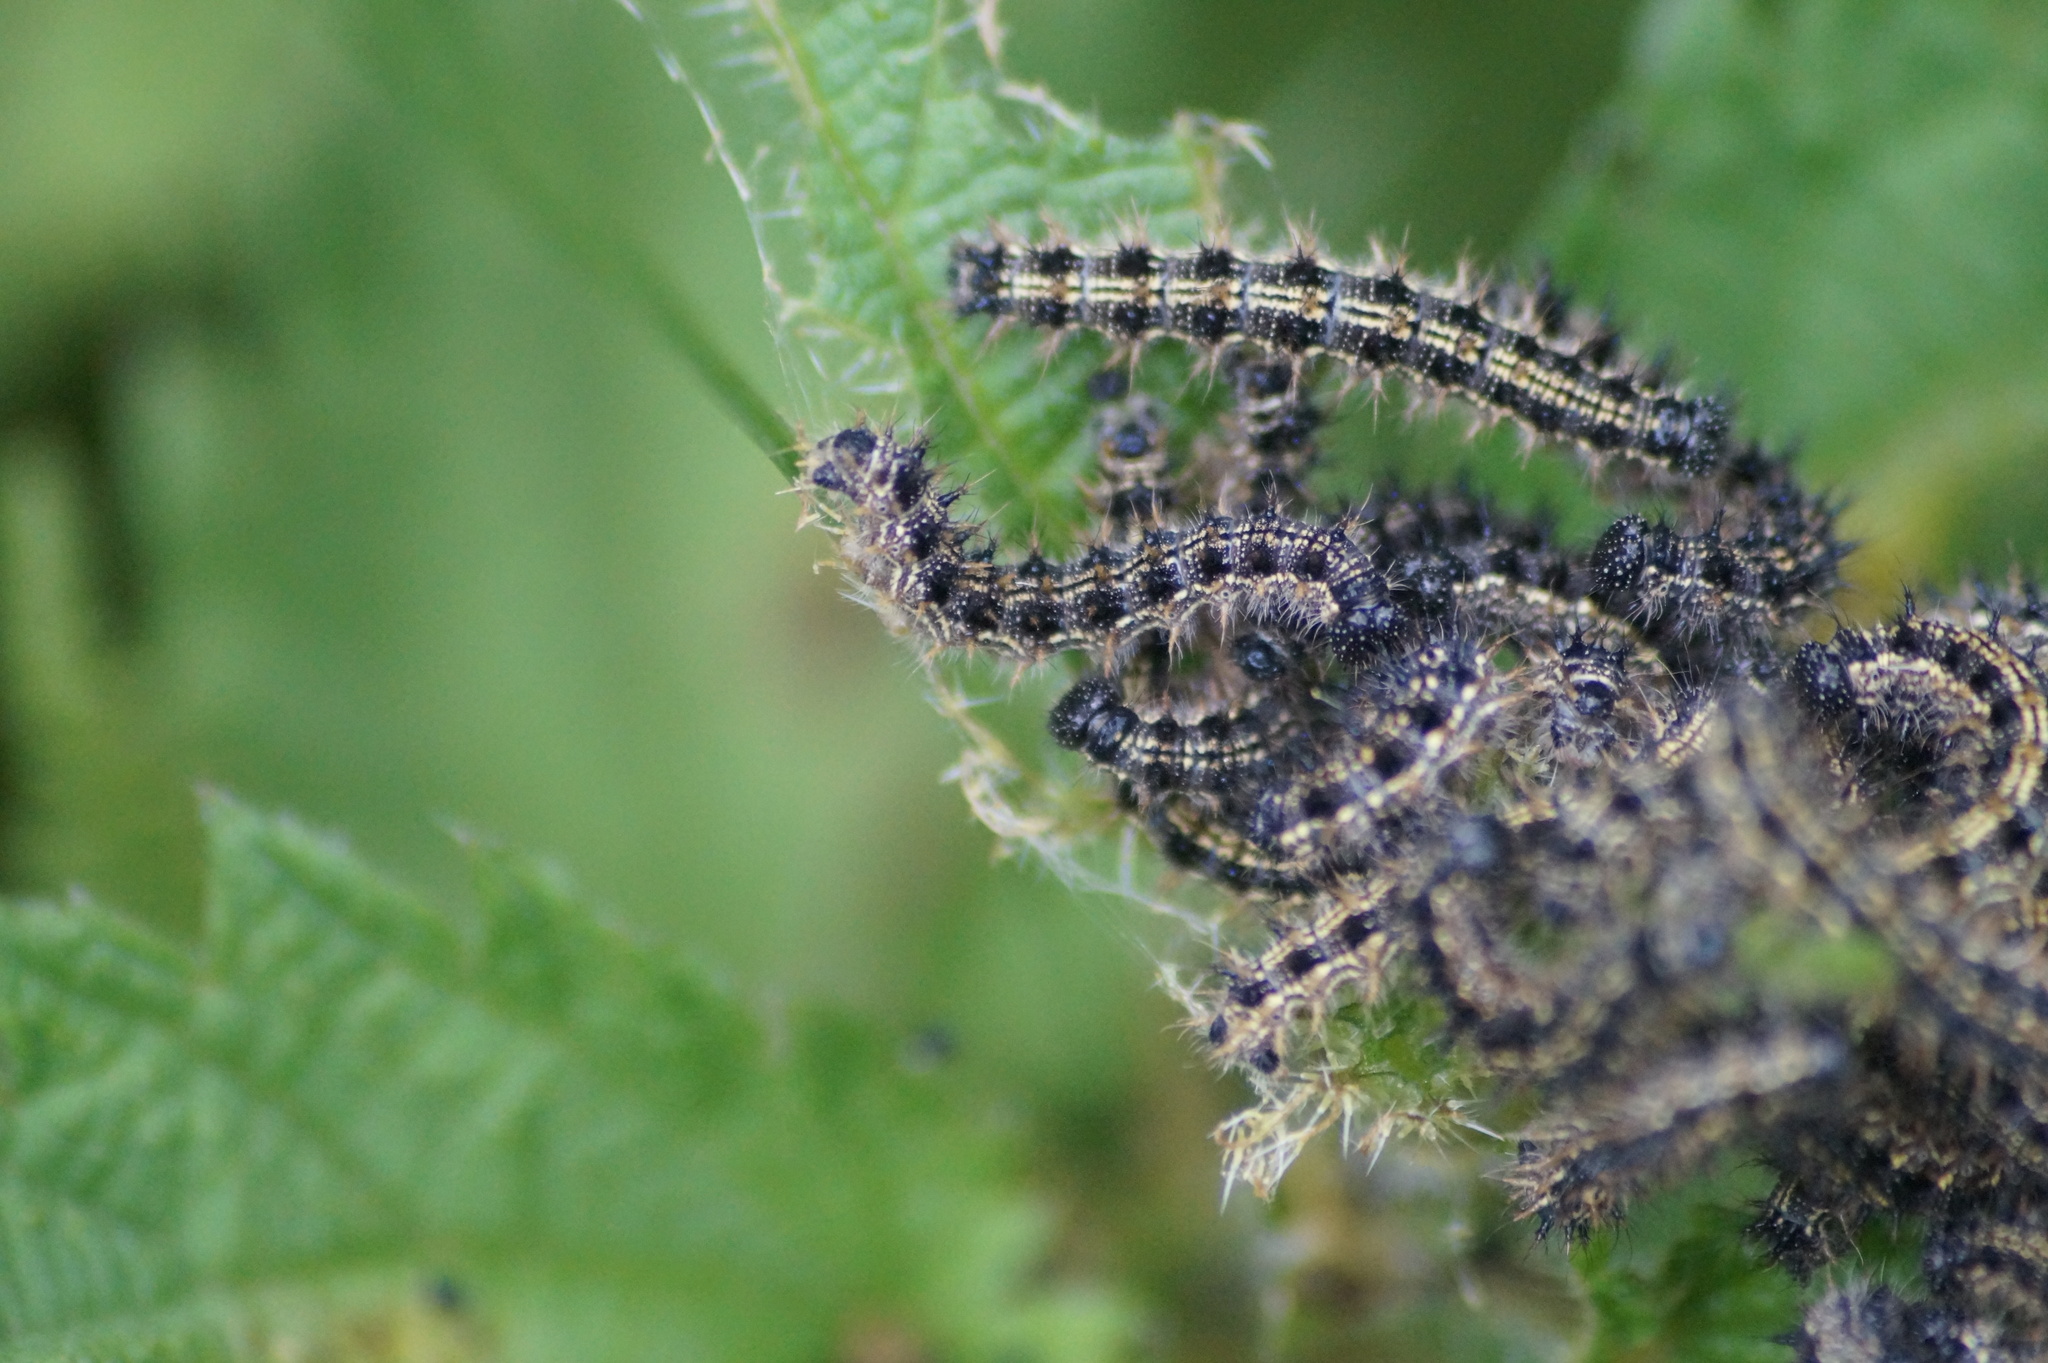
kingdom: Animalia
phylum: Arthropoda
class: Insecta
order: Lepidoptera
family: Nymphalidae
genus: Aglais
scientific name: Aglais urticae
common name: Small tortoiseshell
